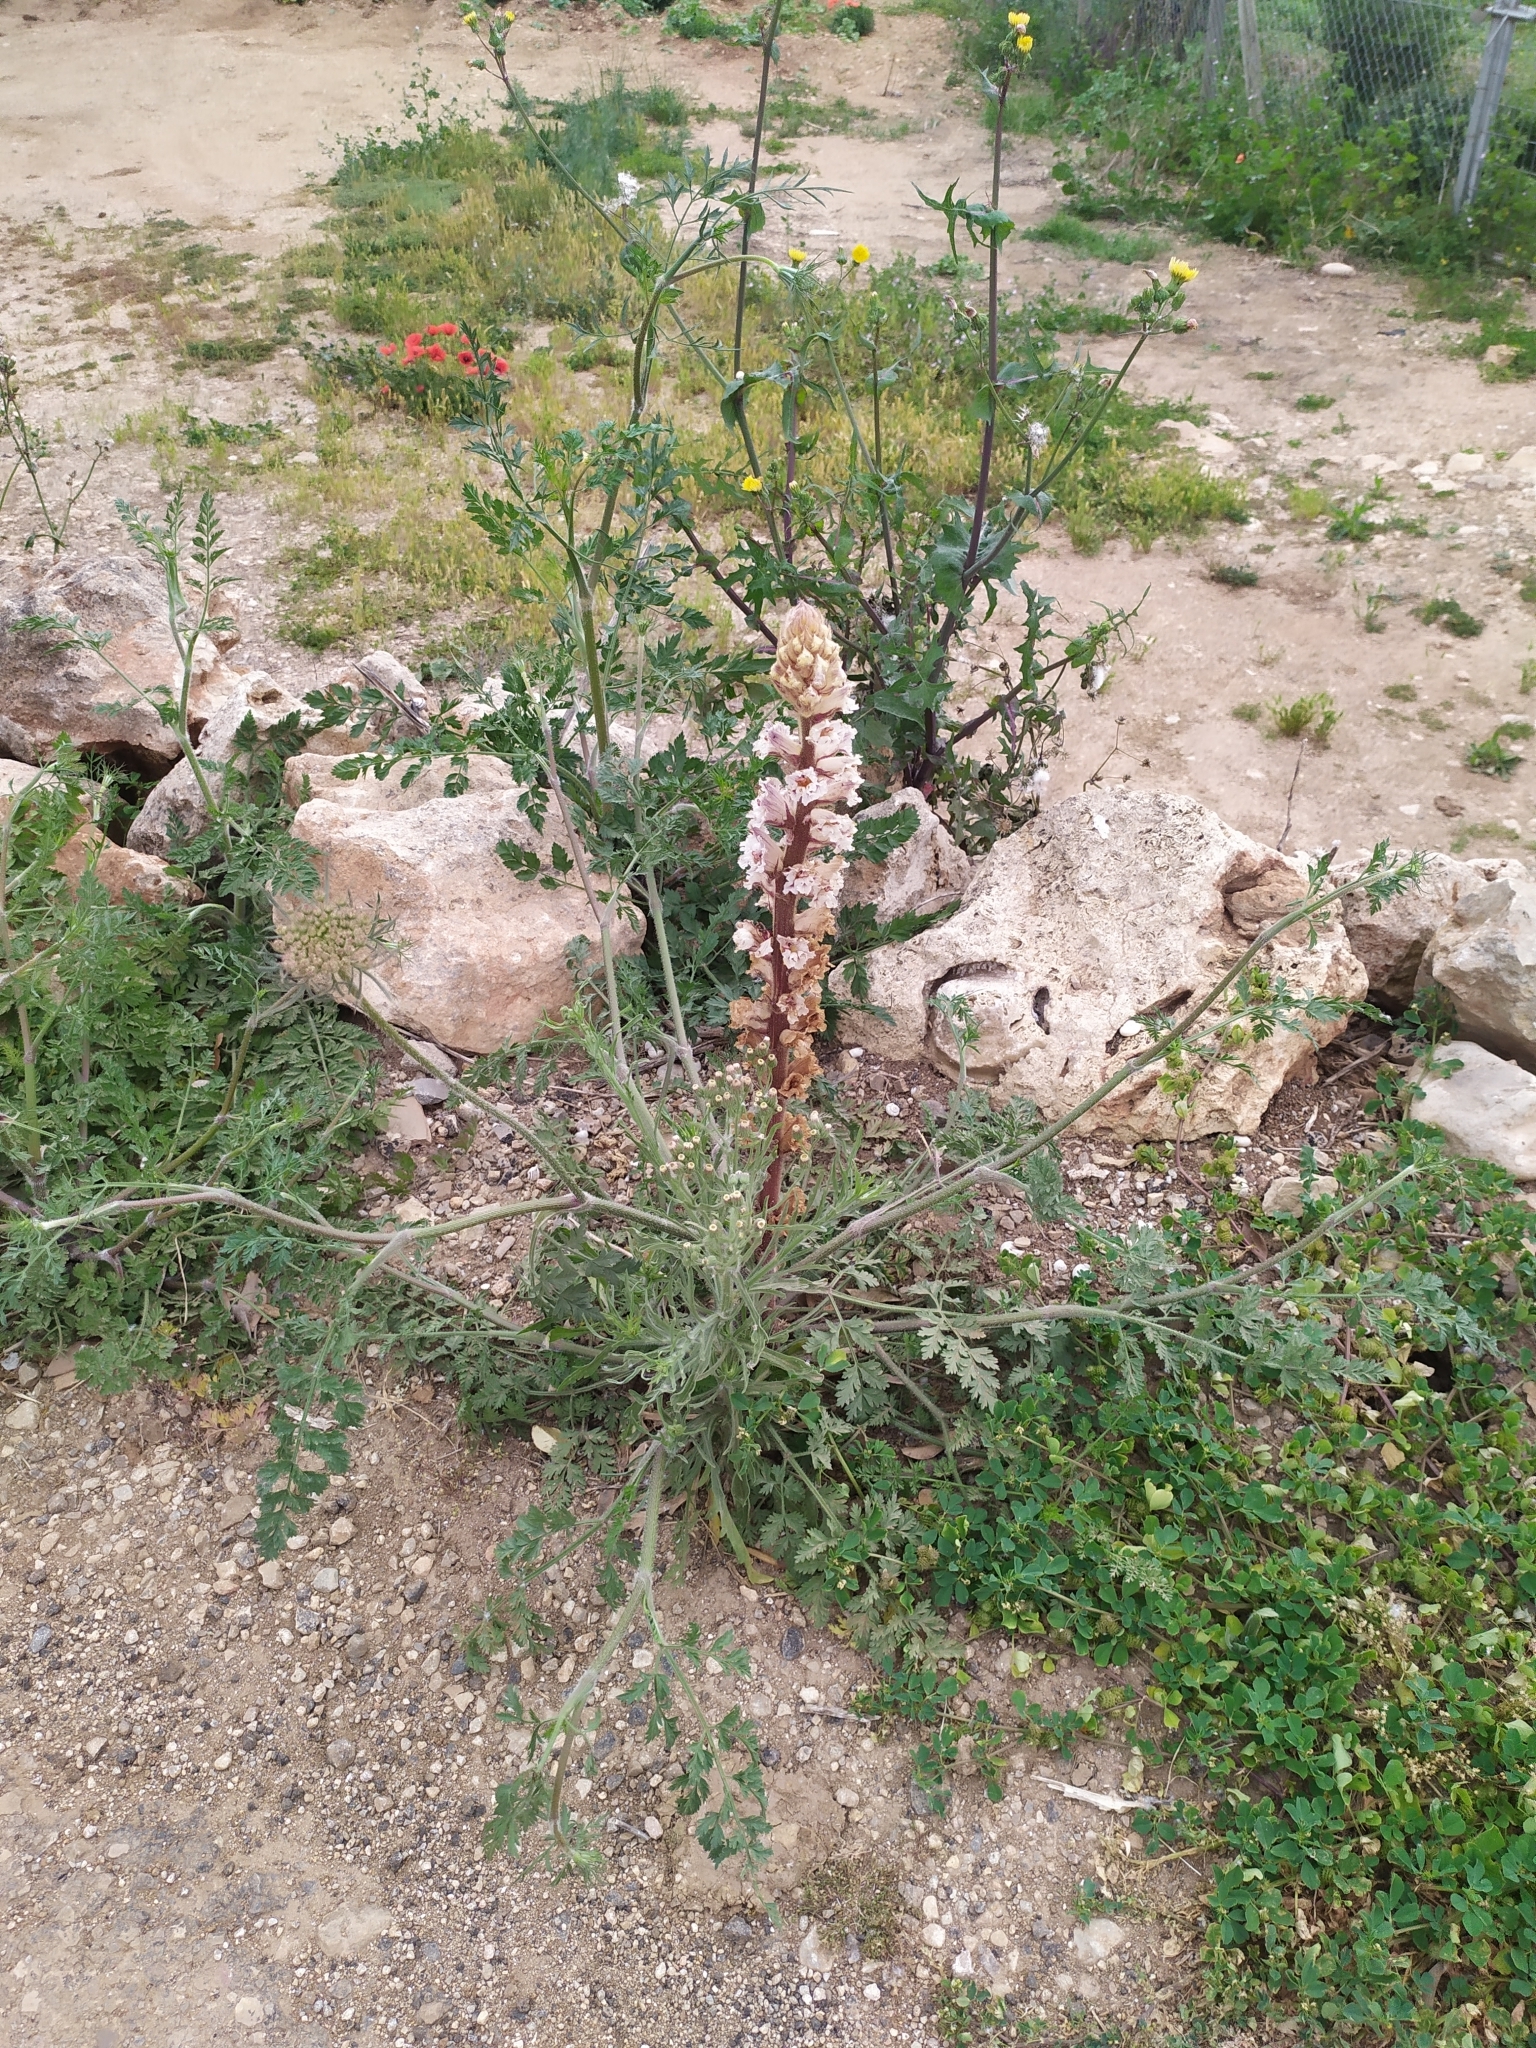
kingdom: Plantae
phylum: Tracheophyta
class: Magnoliopsida
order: Lamiales
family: Orobanchaceae
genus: Orobanche
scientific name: Orobanche crenata
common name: Bean broomrape
